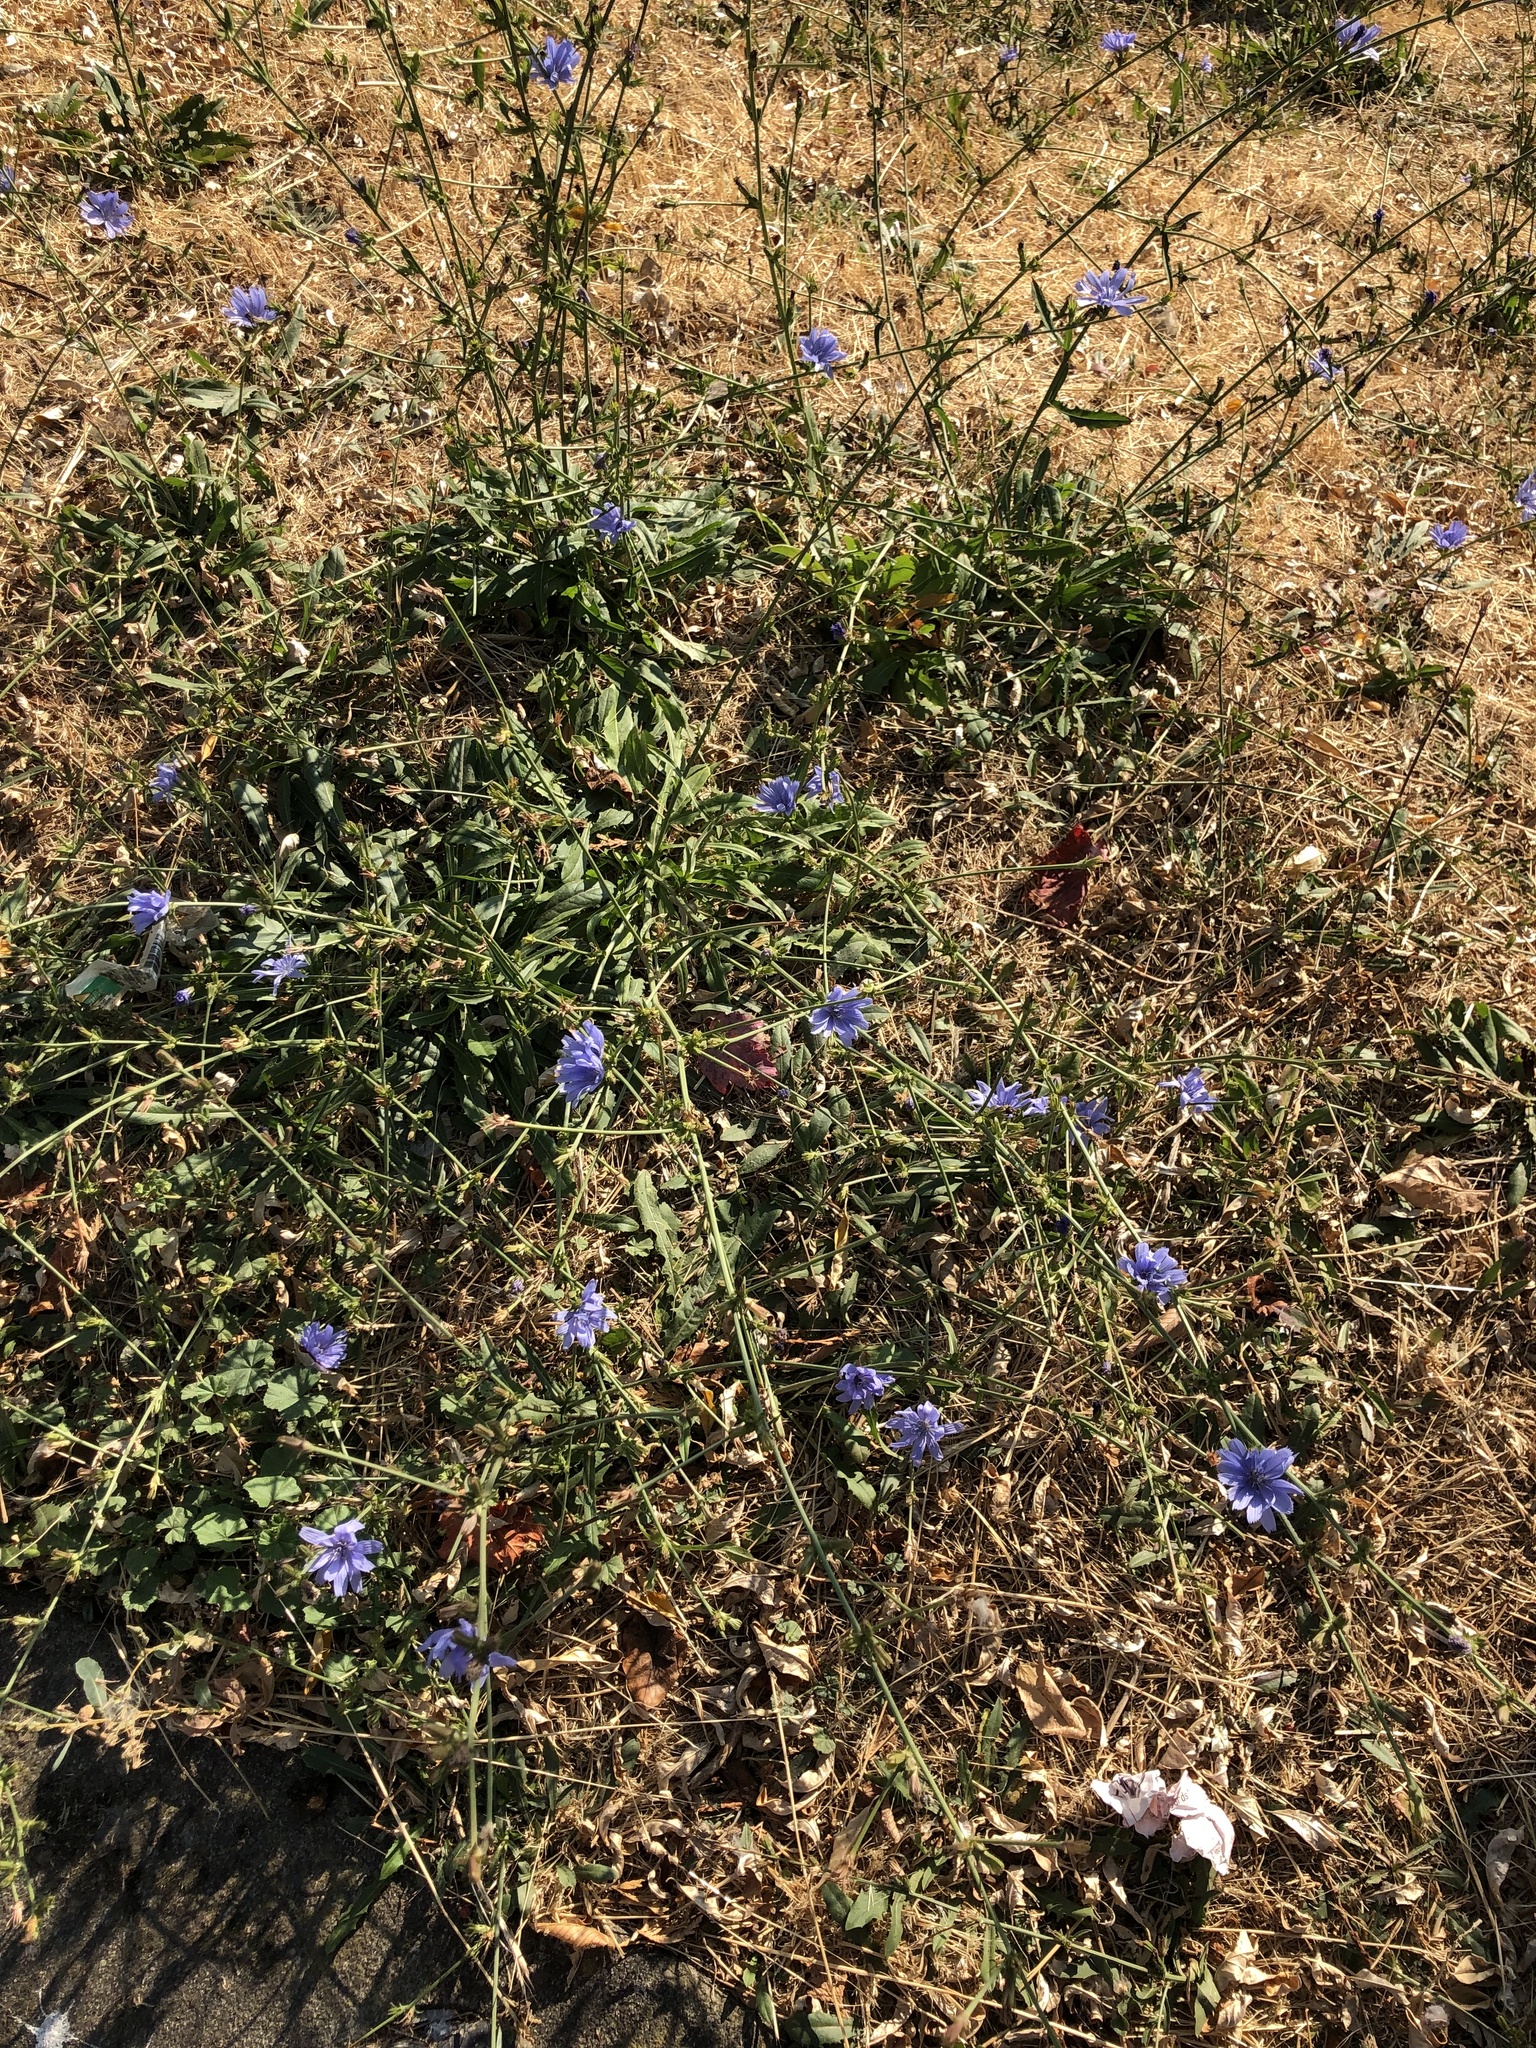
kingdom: Plantae
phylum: Tracheophyta
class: Magnoliopsida
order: Asterales
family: Asteraceae
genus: Cichorium
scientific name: Cichorium intybus
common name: Chicory
